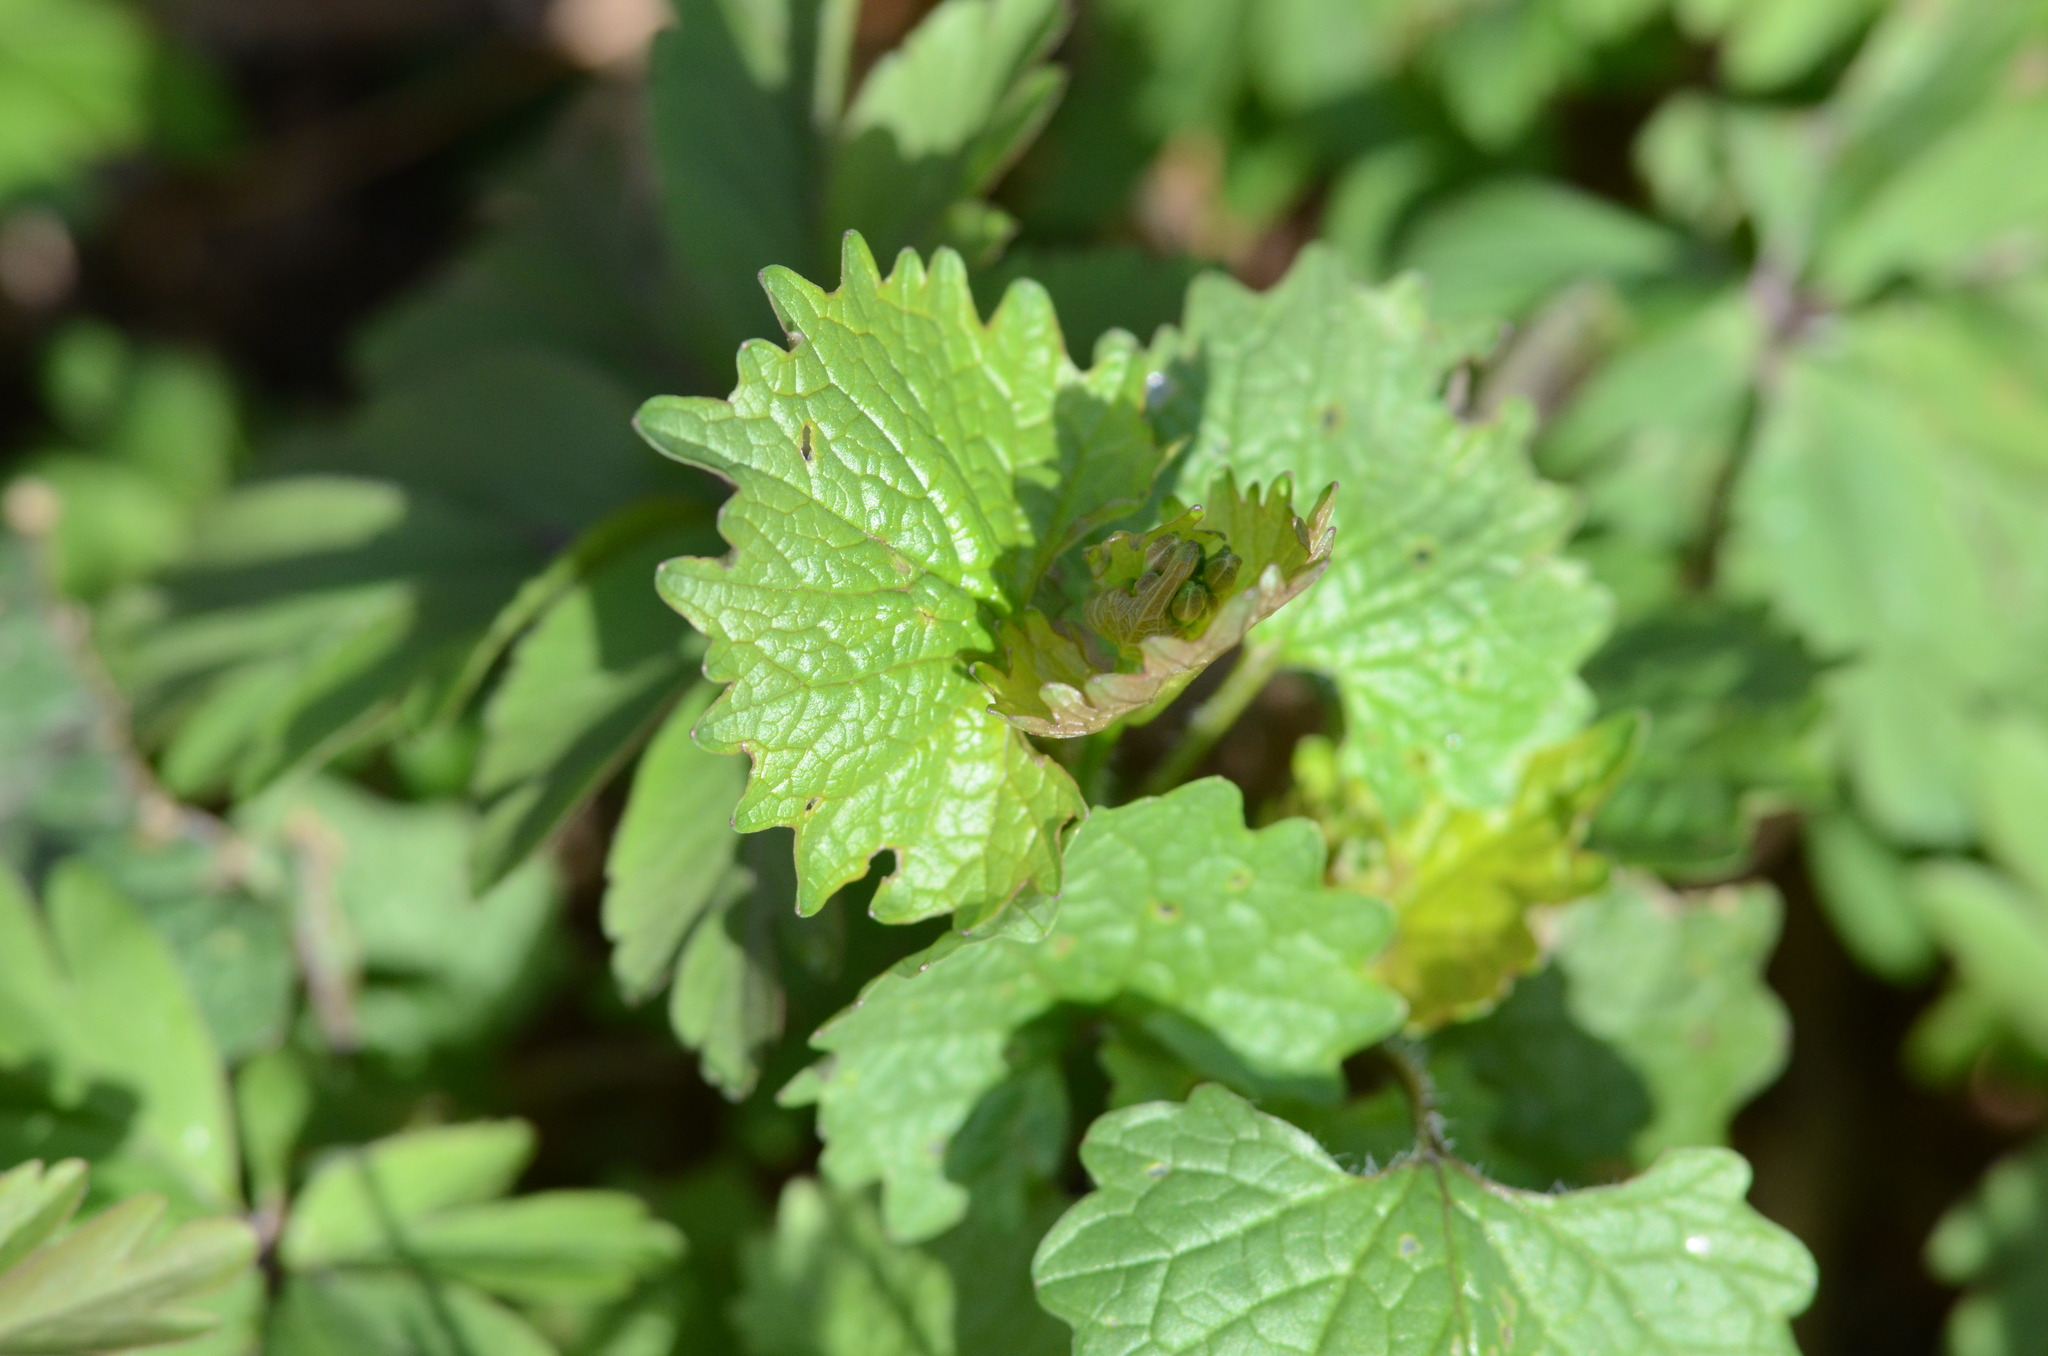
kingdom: Plantae
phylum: Tracheophyta
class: Magnoliopsida
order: Brassicales
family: Brassicaceae
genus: Alliaria
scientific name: Alliaria petiolata
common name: Garlic mustard
